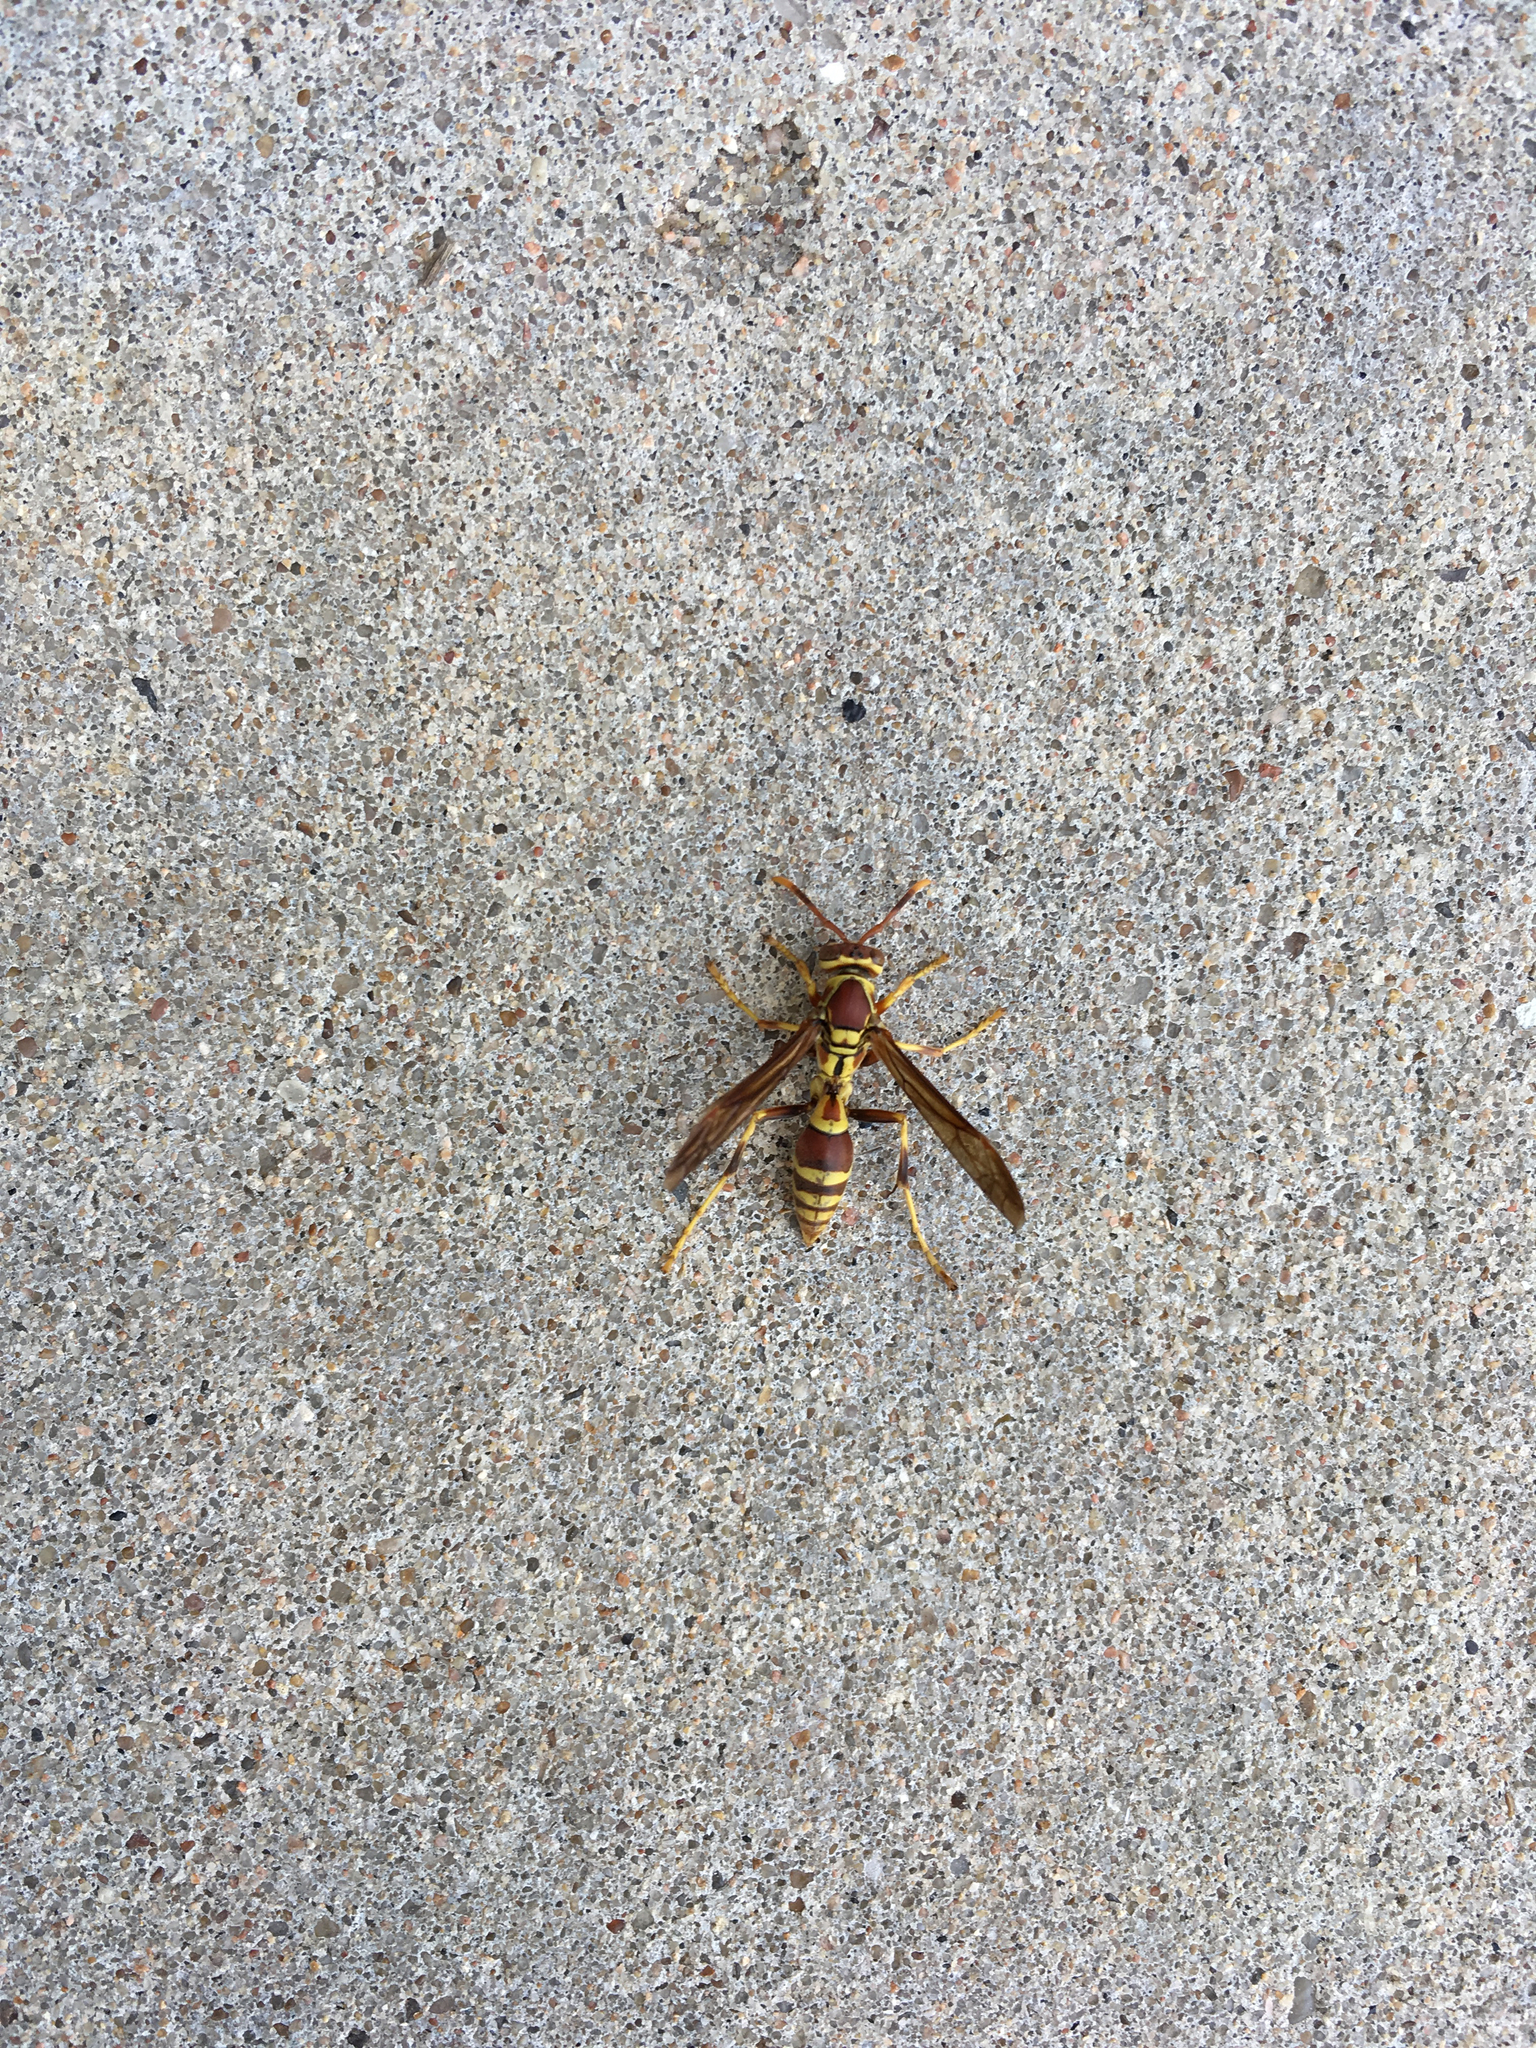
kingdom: Animalia
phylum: Arthropoda
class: Insecta
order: Hymenoptera
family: Eumenidae
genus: Polistes
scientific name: Polistes exclamans
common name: Paper wasp
